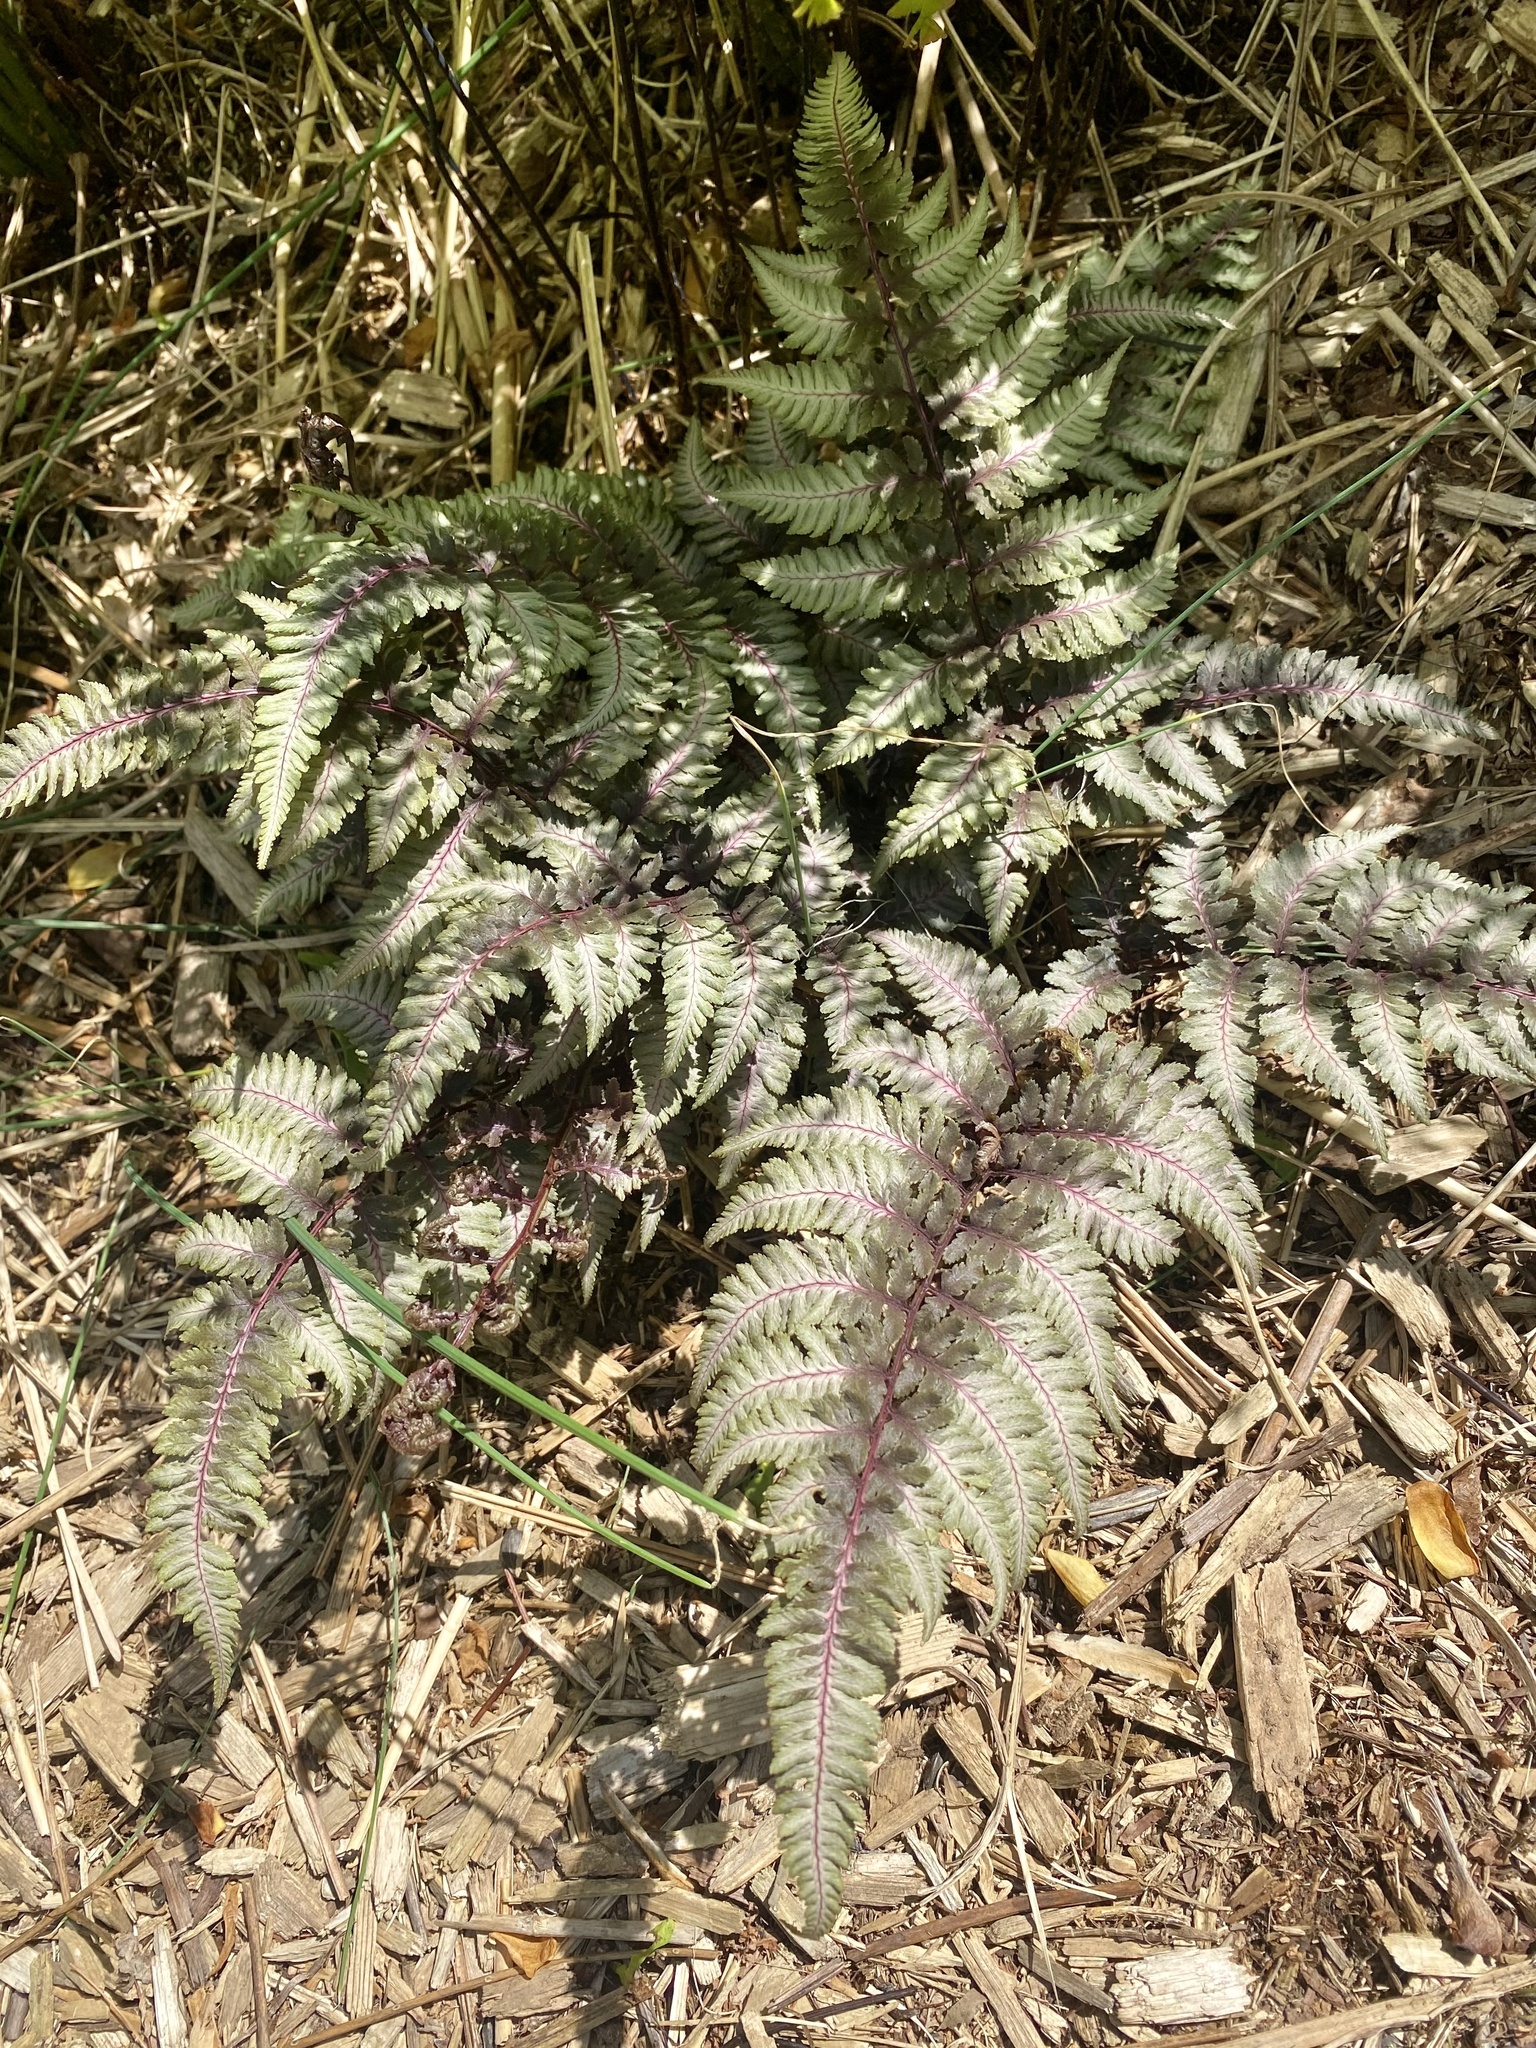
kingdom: Plantae
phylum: Tracheophyta
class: Polypodiopsida
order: Polypodiales
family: Athyriaceae
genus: Anisocampium
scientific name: Anisocampium niponicum
